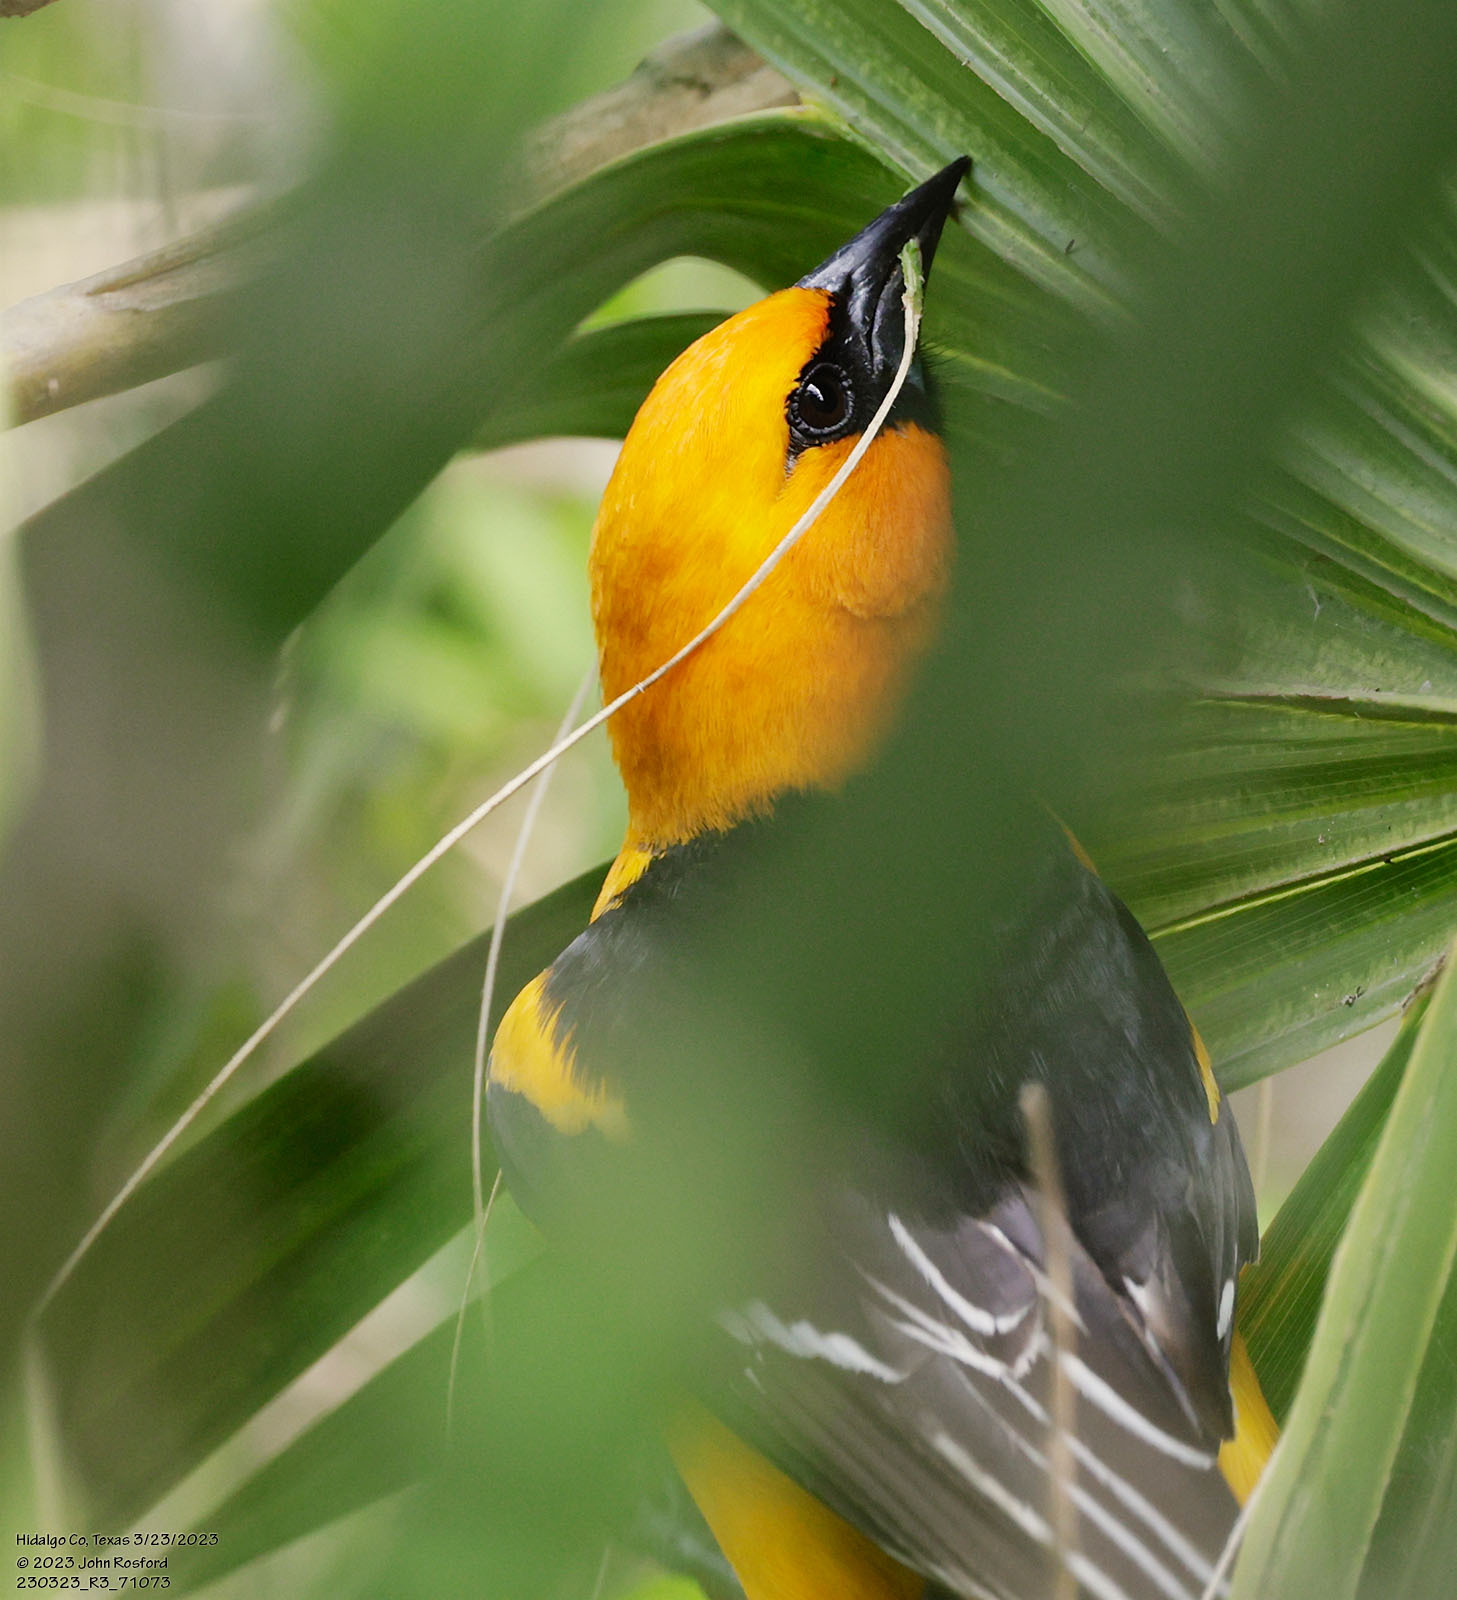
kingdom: Animalia
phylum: Chordata
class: Aves
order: Passeriformes
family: Icteridae
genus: Icterus
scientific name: Icterus gularis
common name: Altamira oriole
